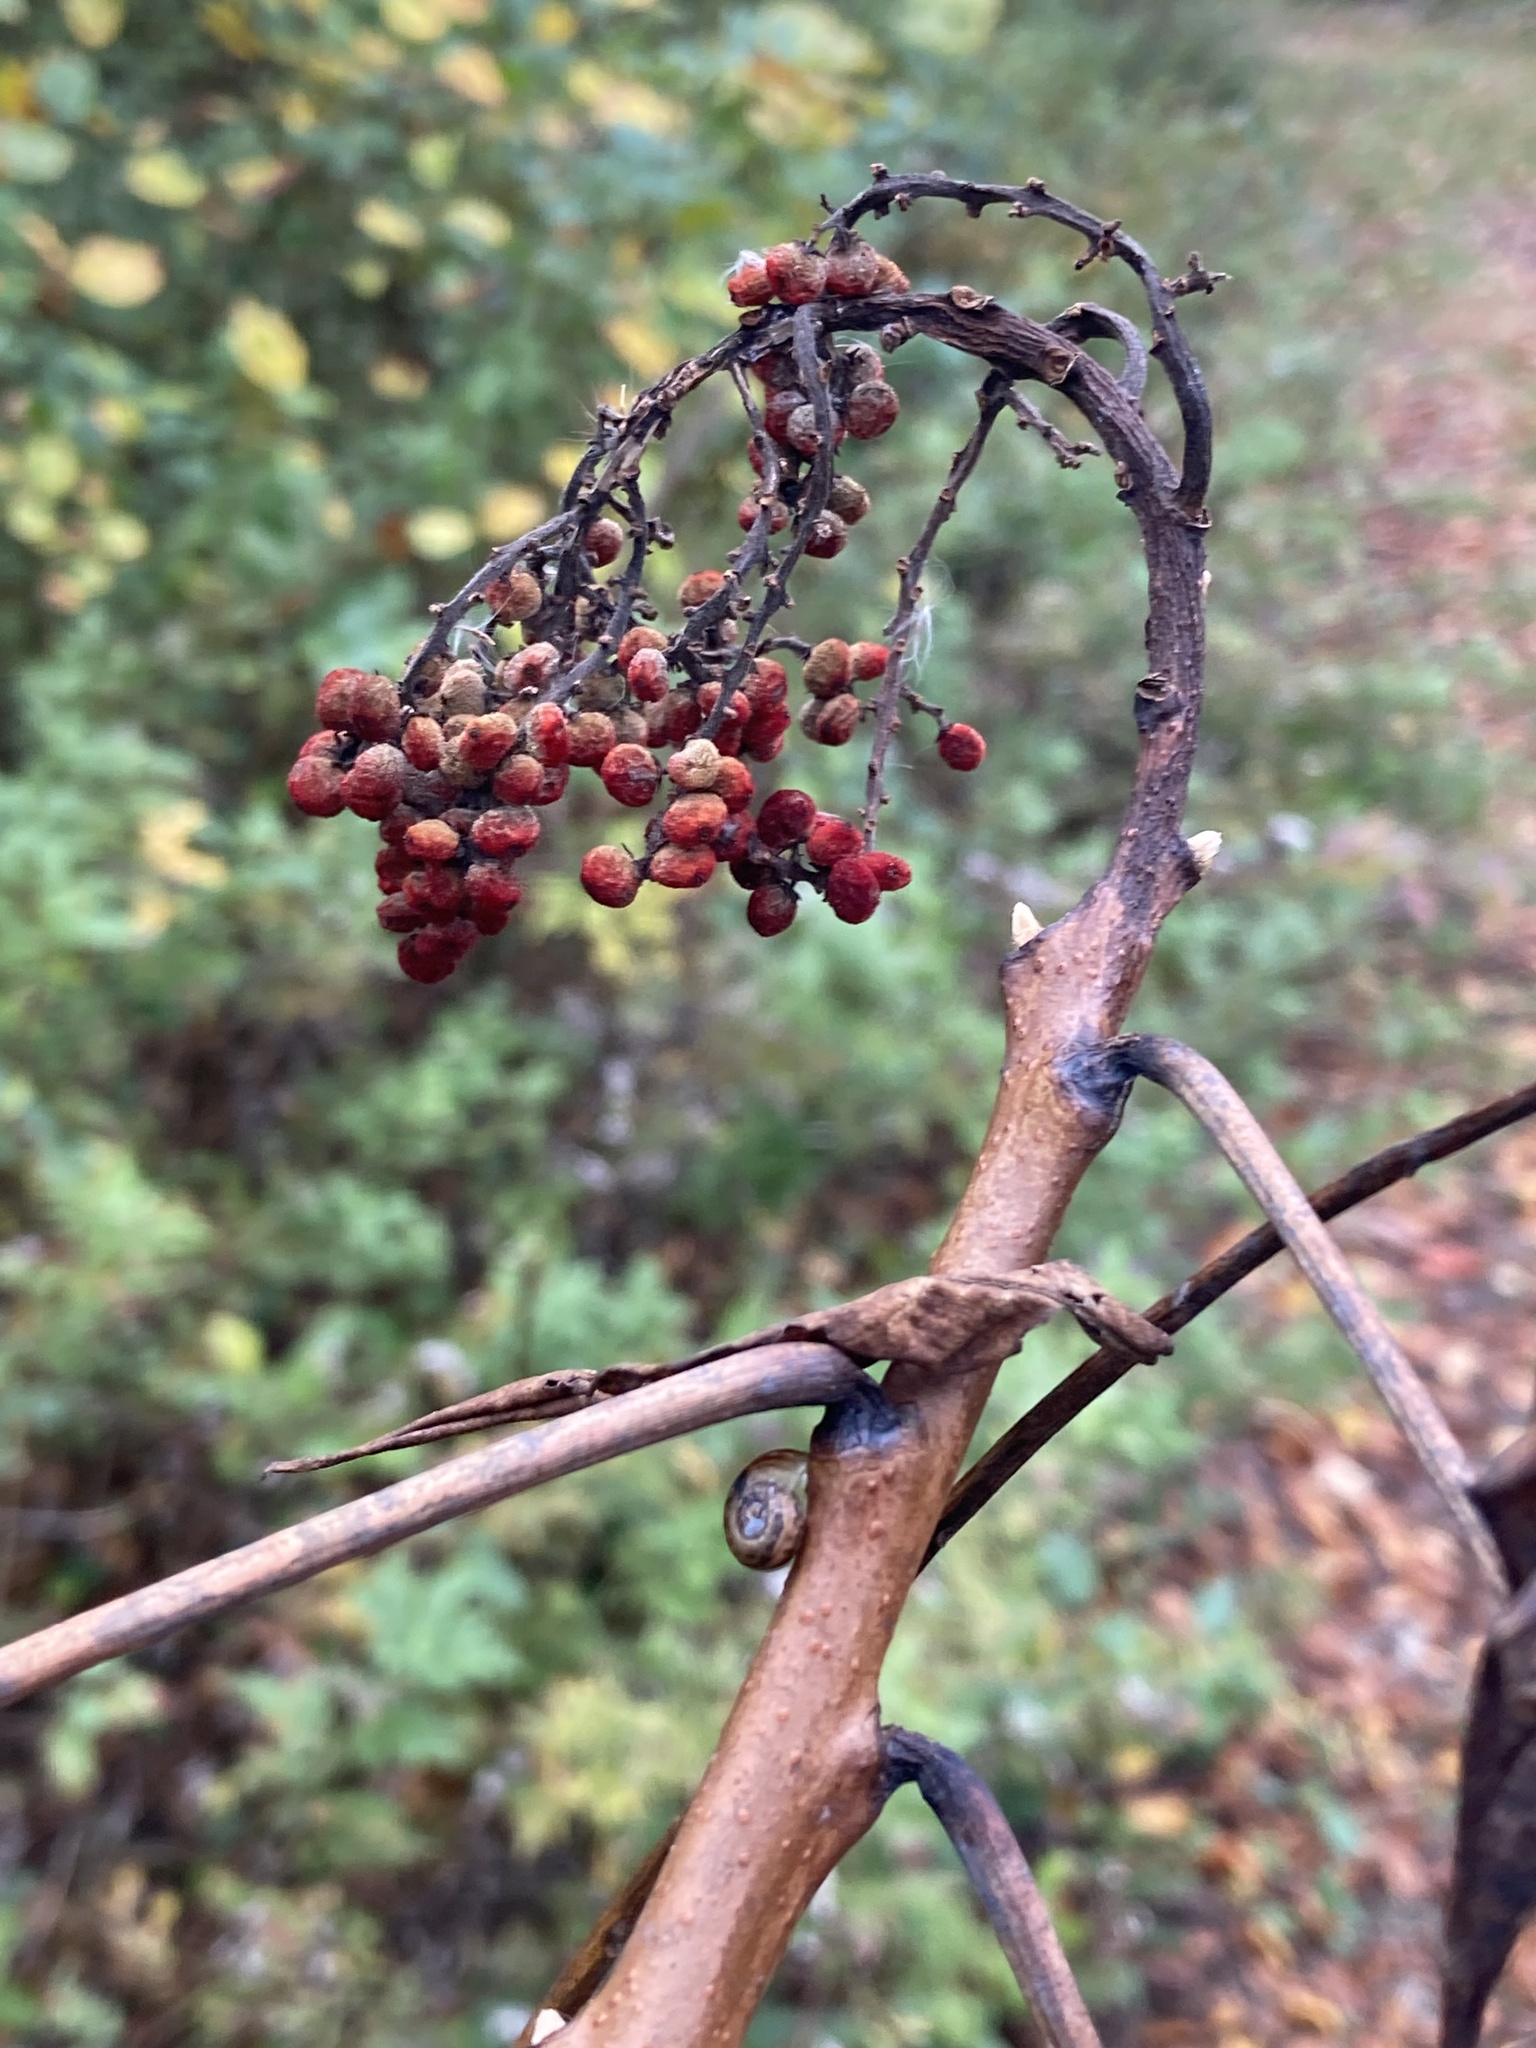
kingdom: Plantae
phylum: Tracheophyta
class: Magnoliopsida
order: Sapindales
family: Anacardiaceae
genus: Rhus
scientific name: Rhus glabra
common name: Scarlet sumac
